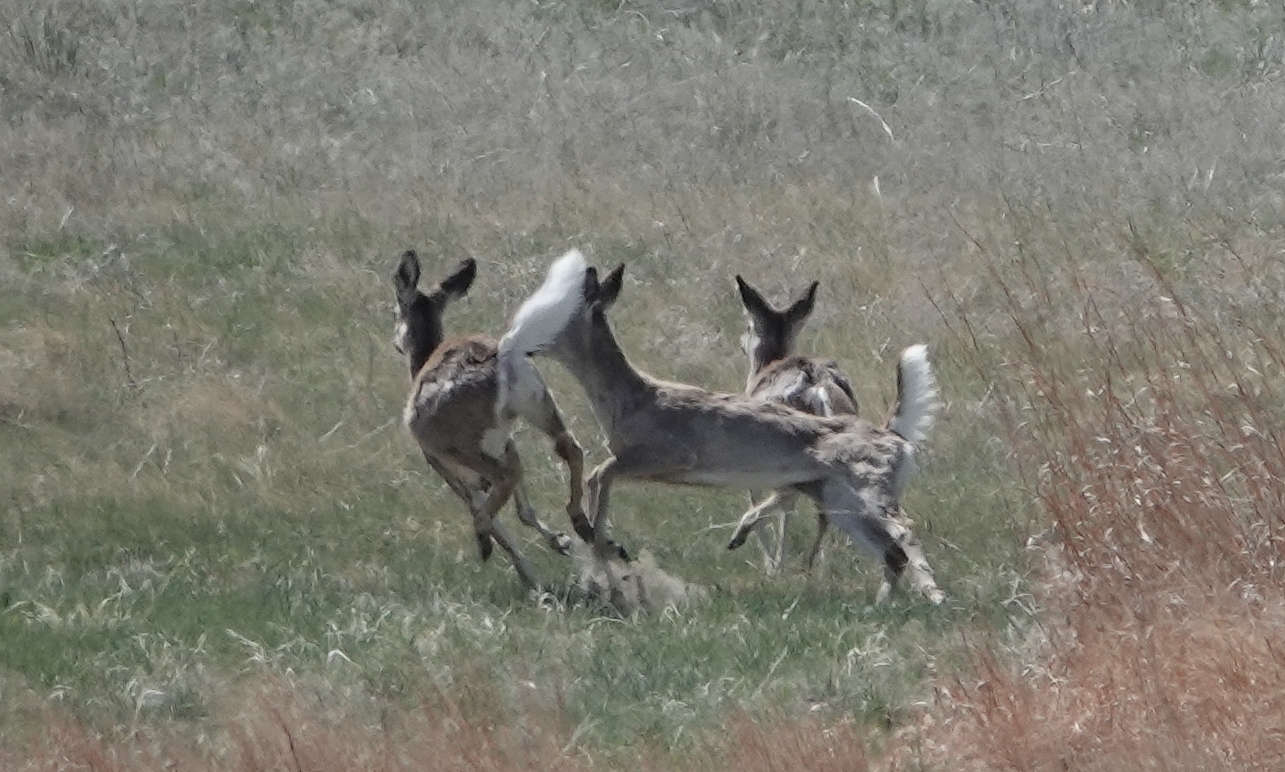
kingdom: Animalia
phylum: Chordata
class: Mammalia
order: Artiodactyla
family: Cervidae
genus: Odocoileus
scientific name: Odocoileus virginianus
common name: White-tailed deer
